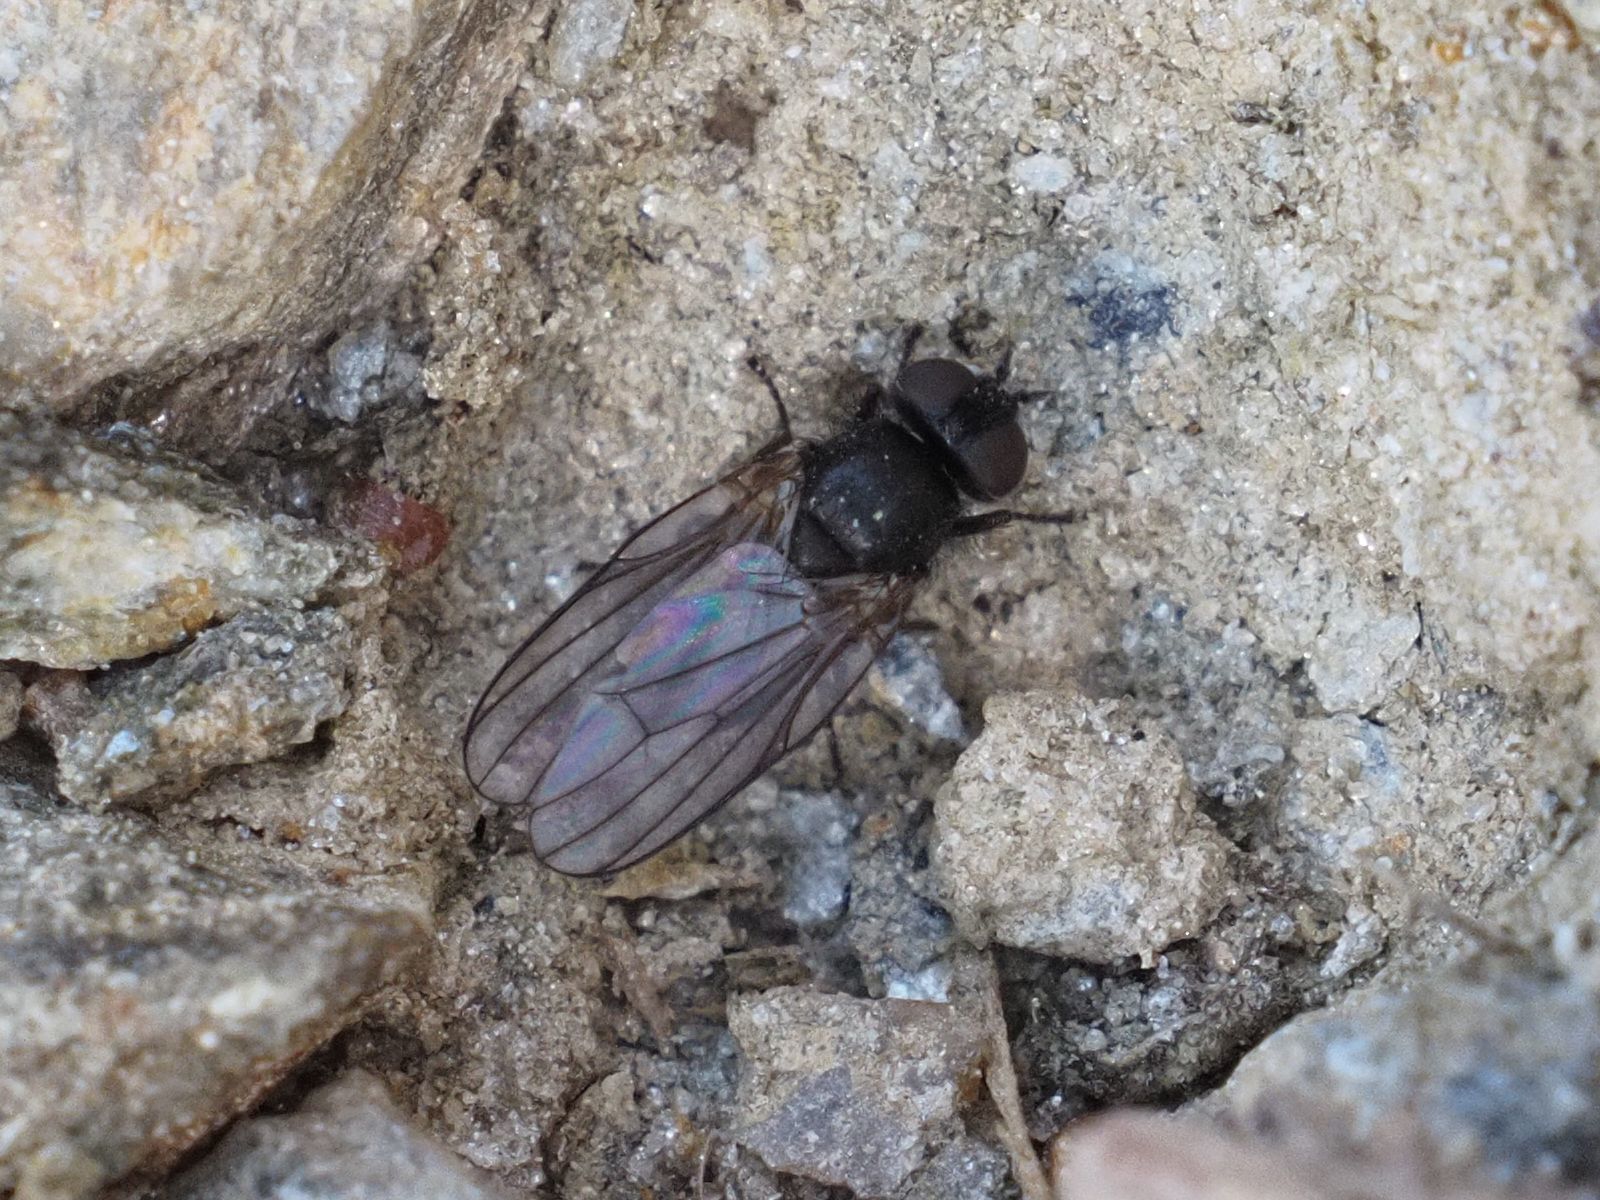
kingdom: Animalia
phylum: Arthropoda
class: Insecta
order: Diptera
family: Lonchaeidae
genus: Earomyia
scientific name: Earomyia lonchaeoides
